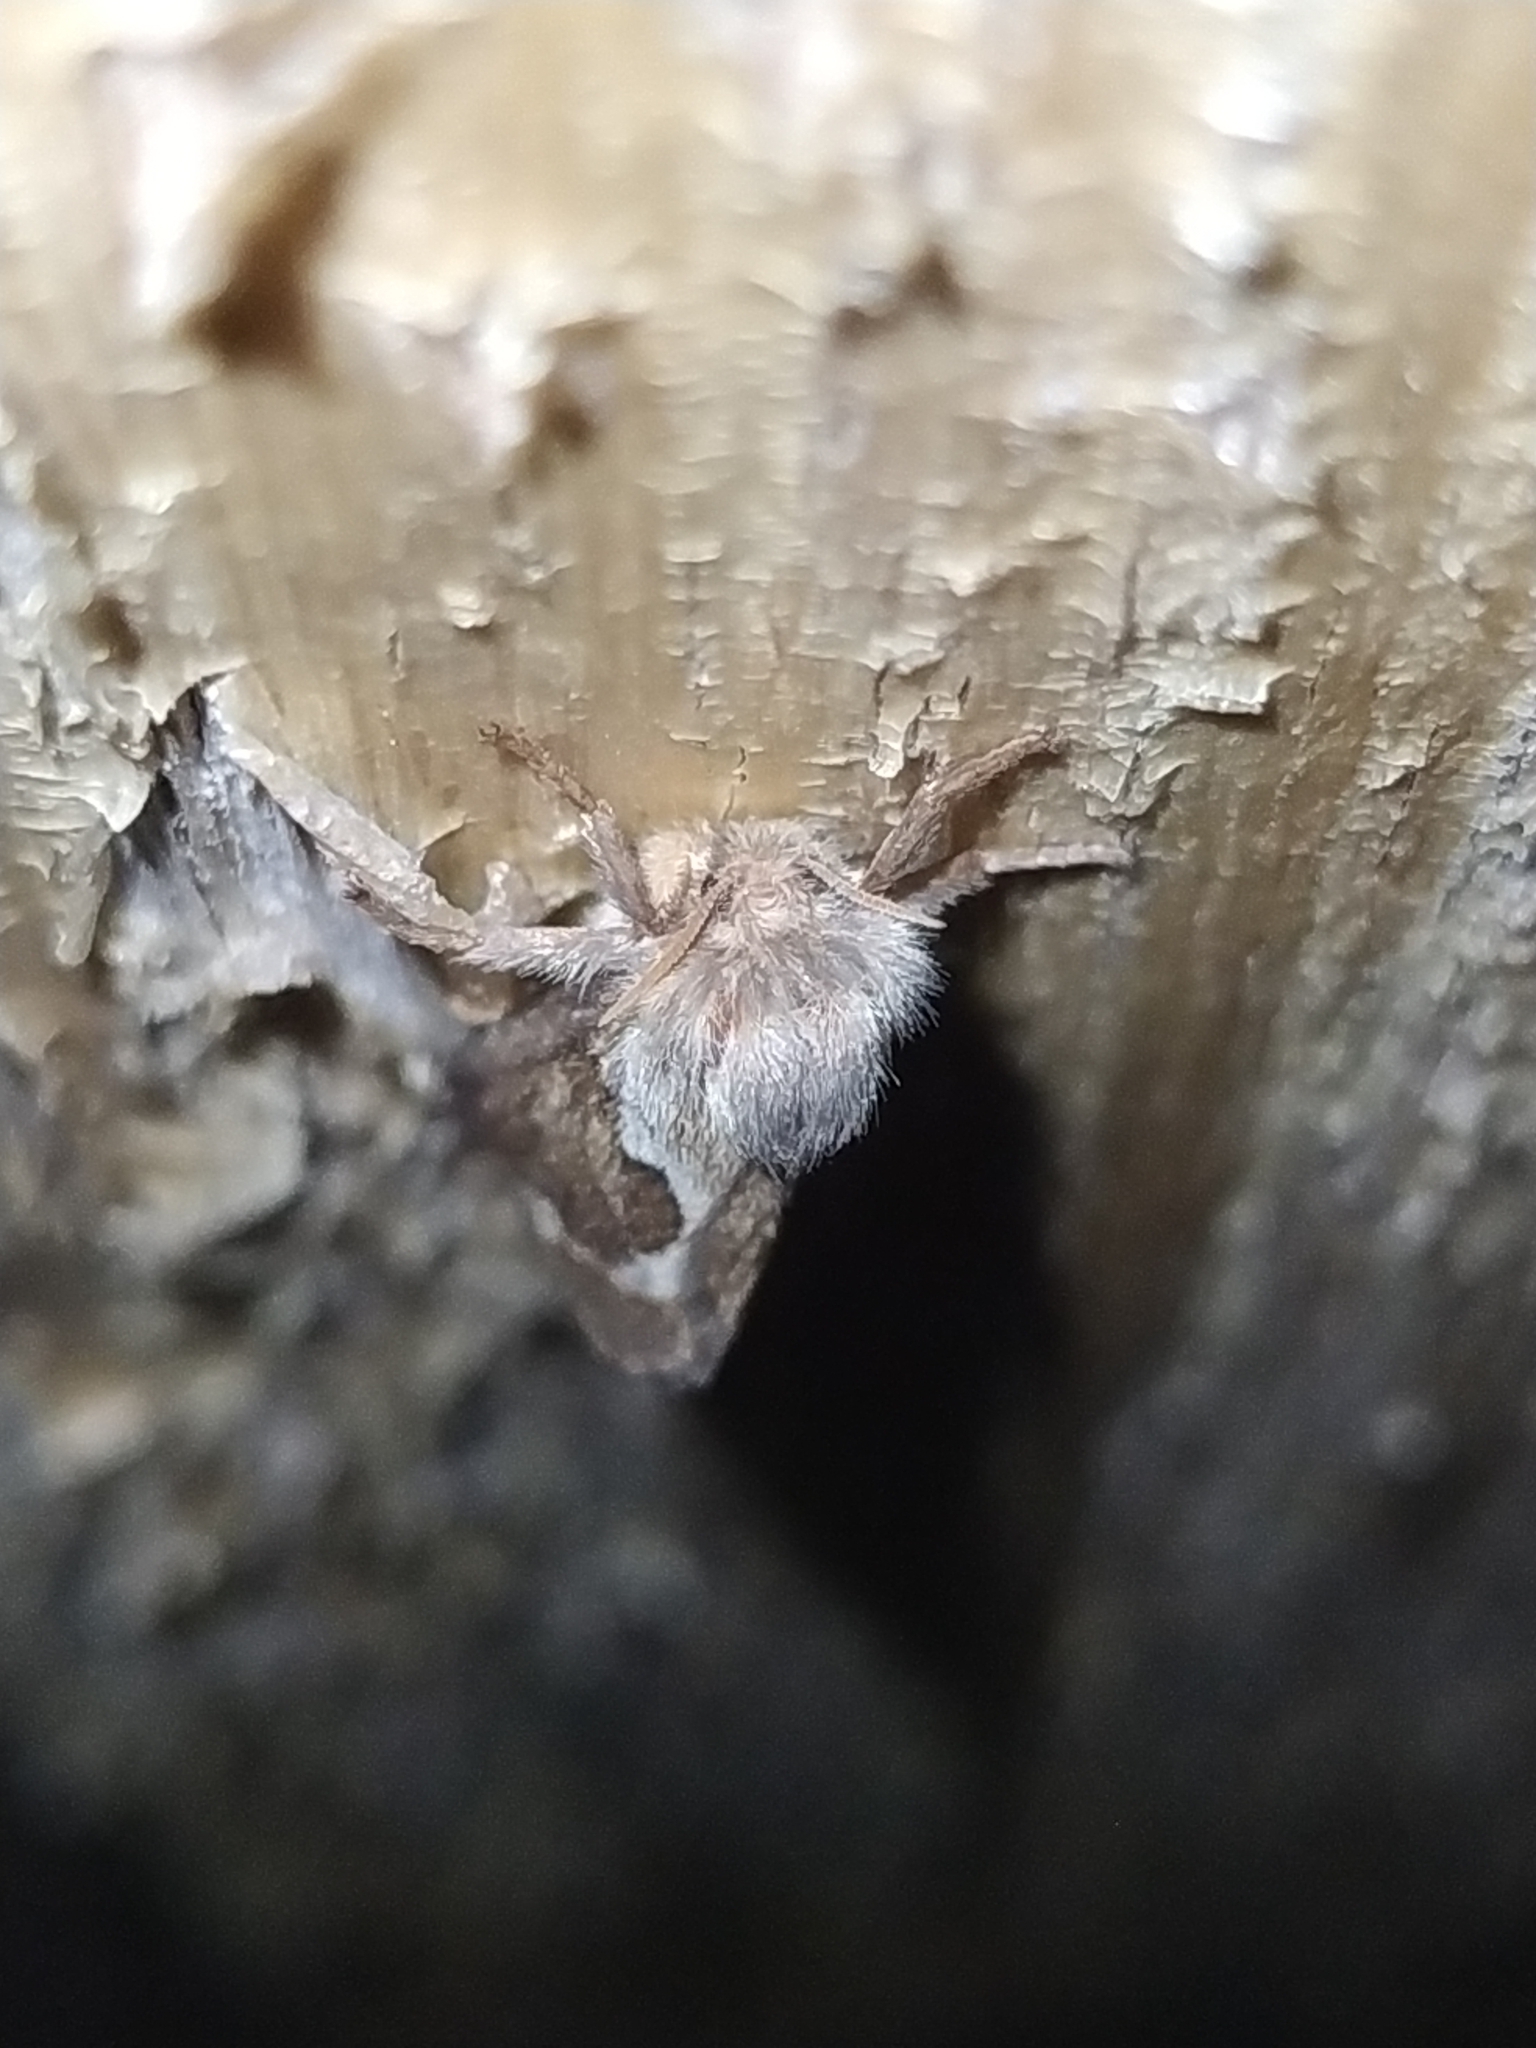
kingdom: Animalia
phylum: Arthropoda
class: Insecta
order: Lepidoptera
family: Hepialidae
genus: Korscheltellus
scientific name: Korscheltellus lupulina
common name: Common swift
